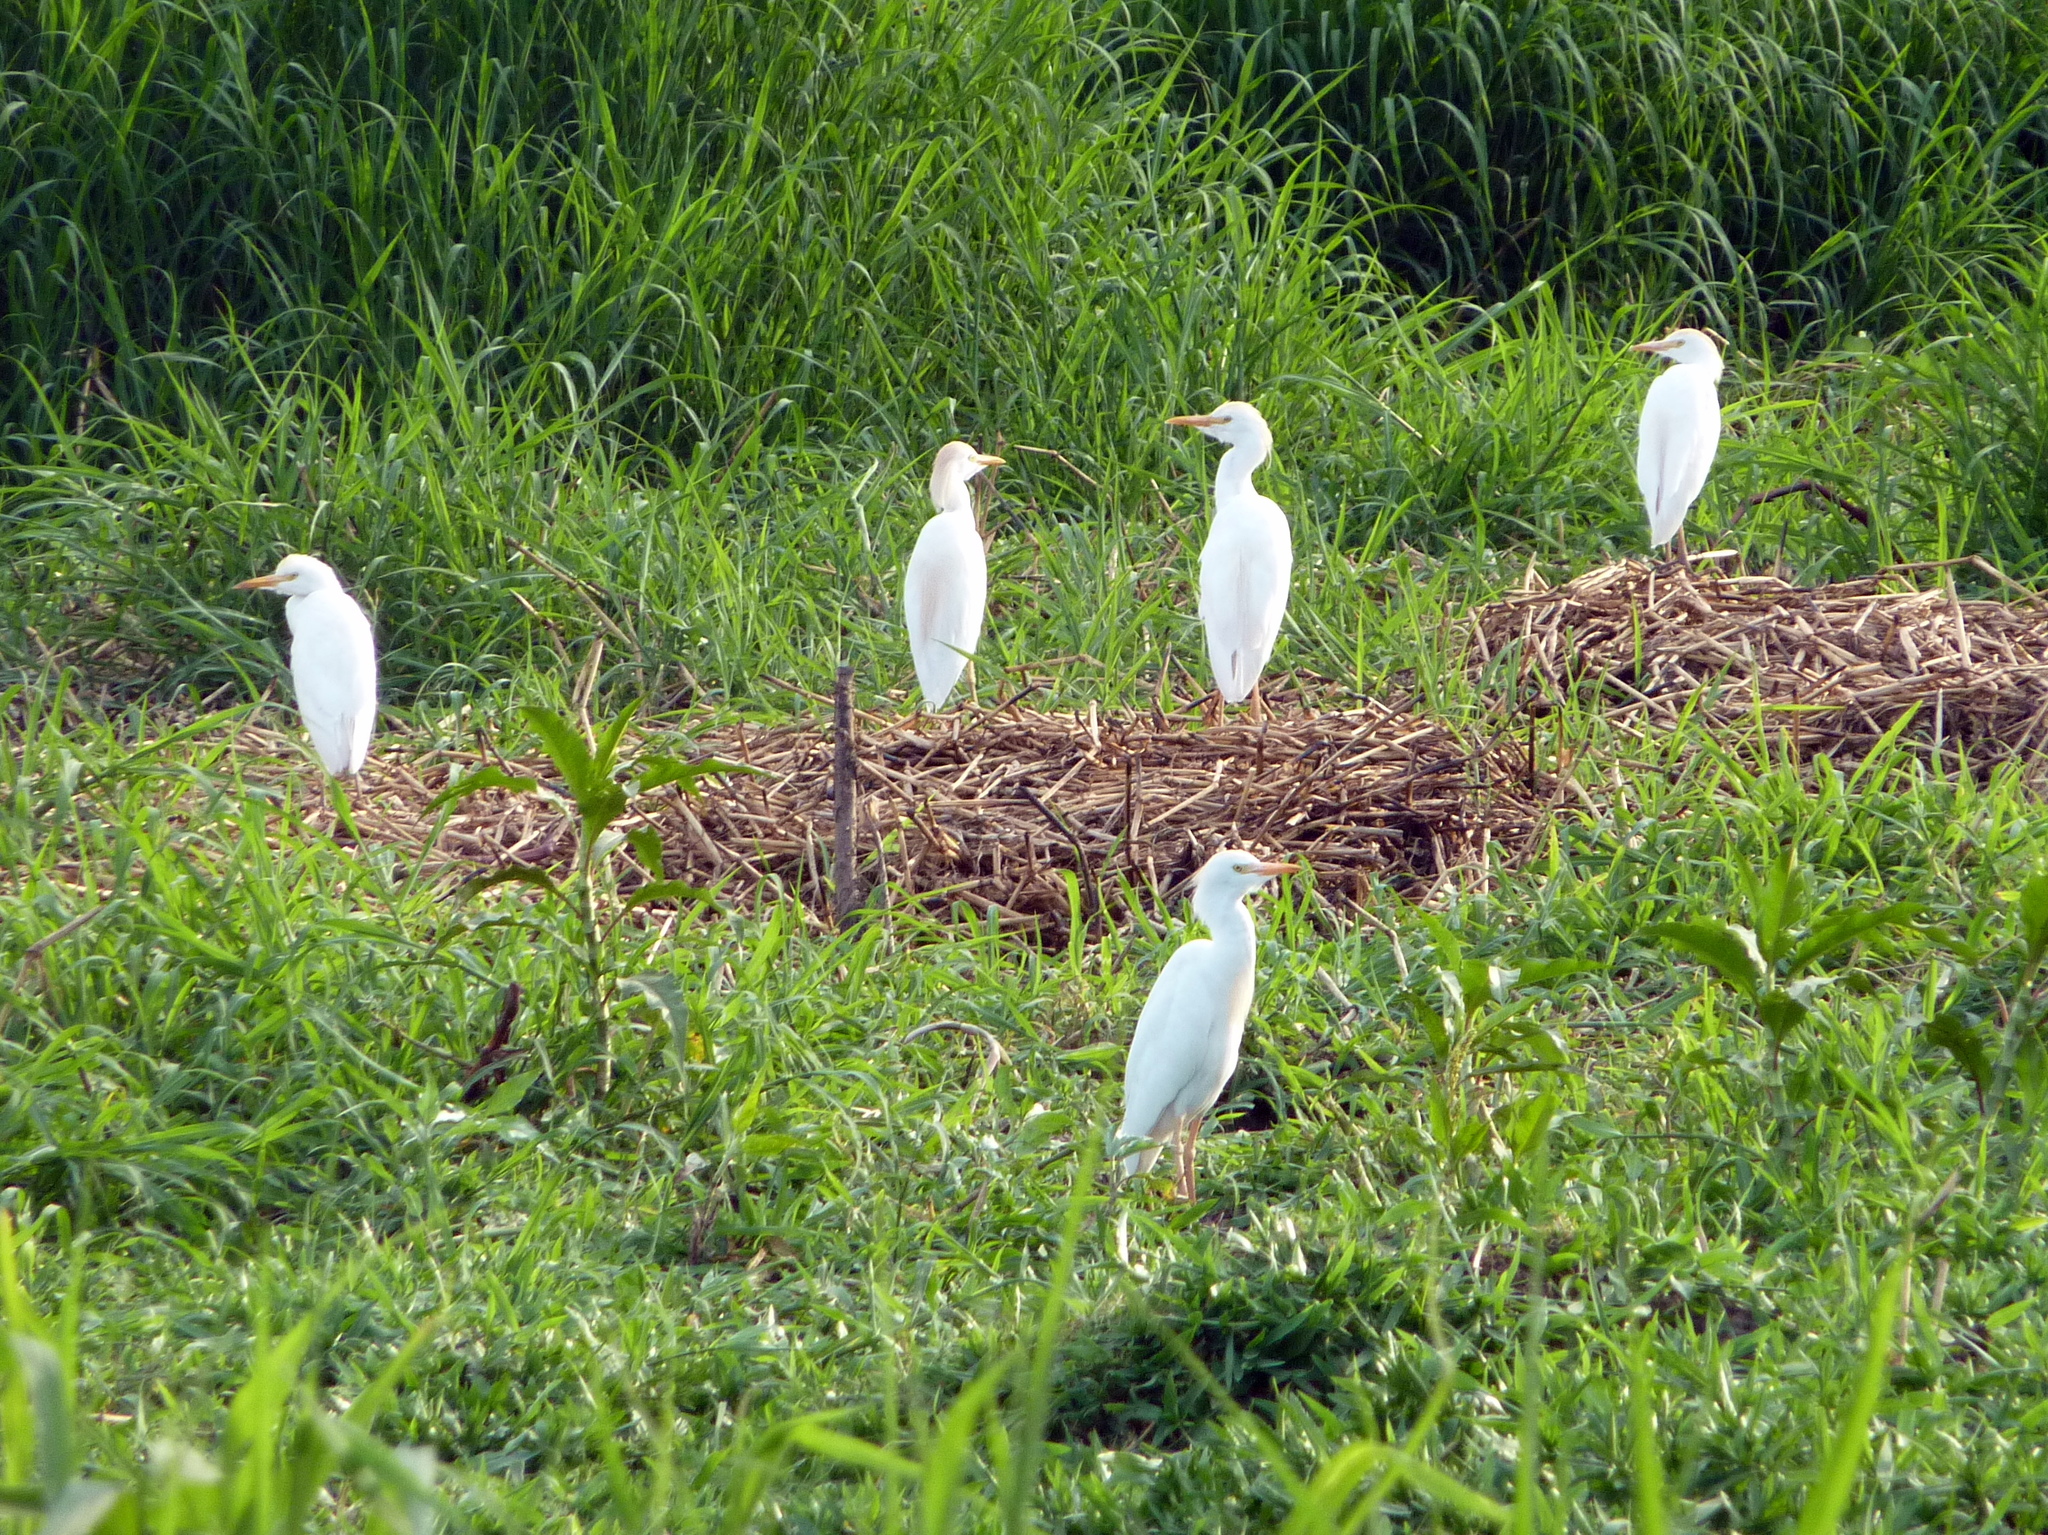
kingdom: Animalia
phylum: Chordata
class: Aves
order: Pelecaniformes
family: Ardeidae
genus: Bubulcus
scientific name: Bubulcus ibis
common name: Cattle egret
